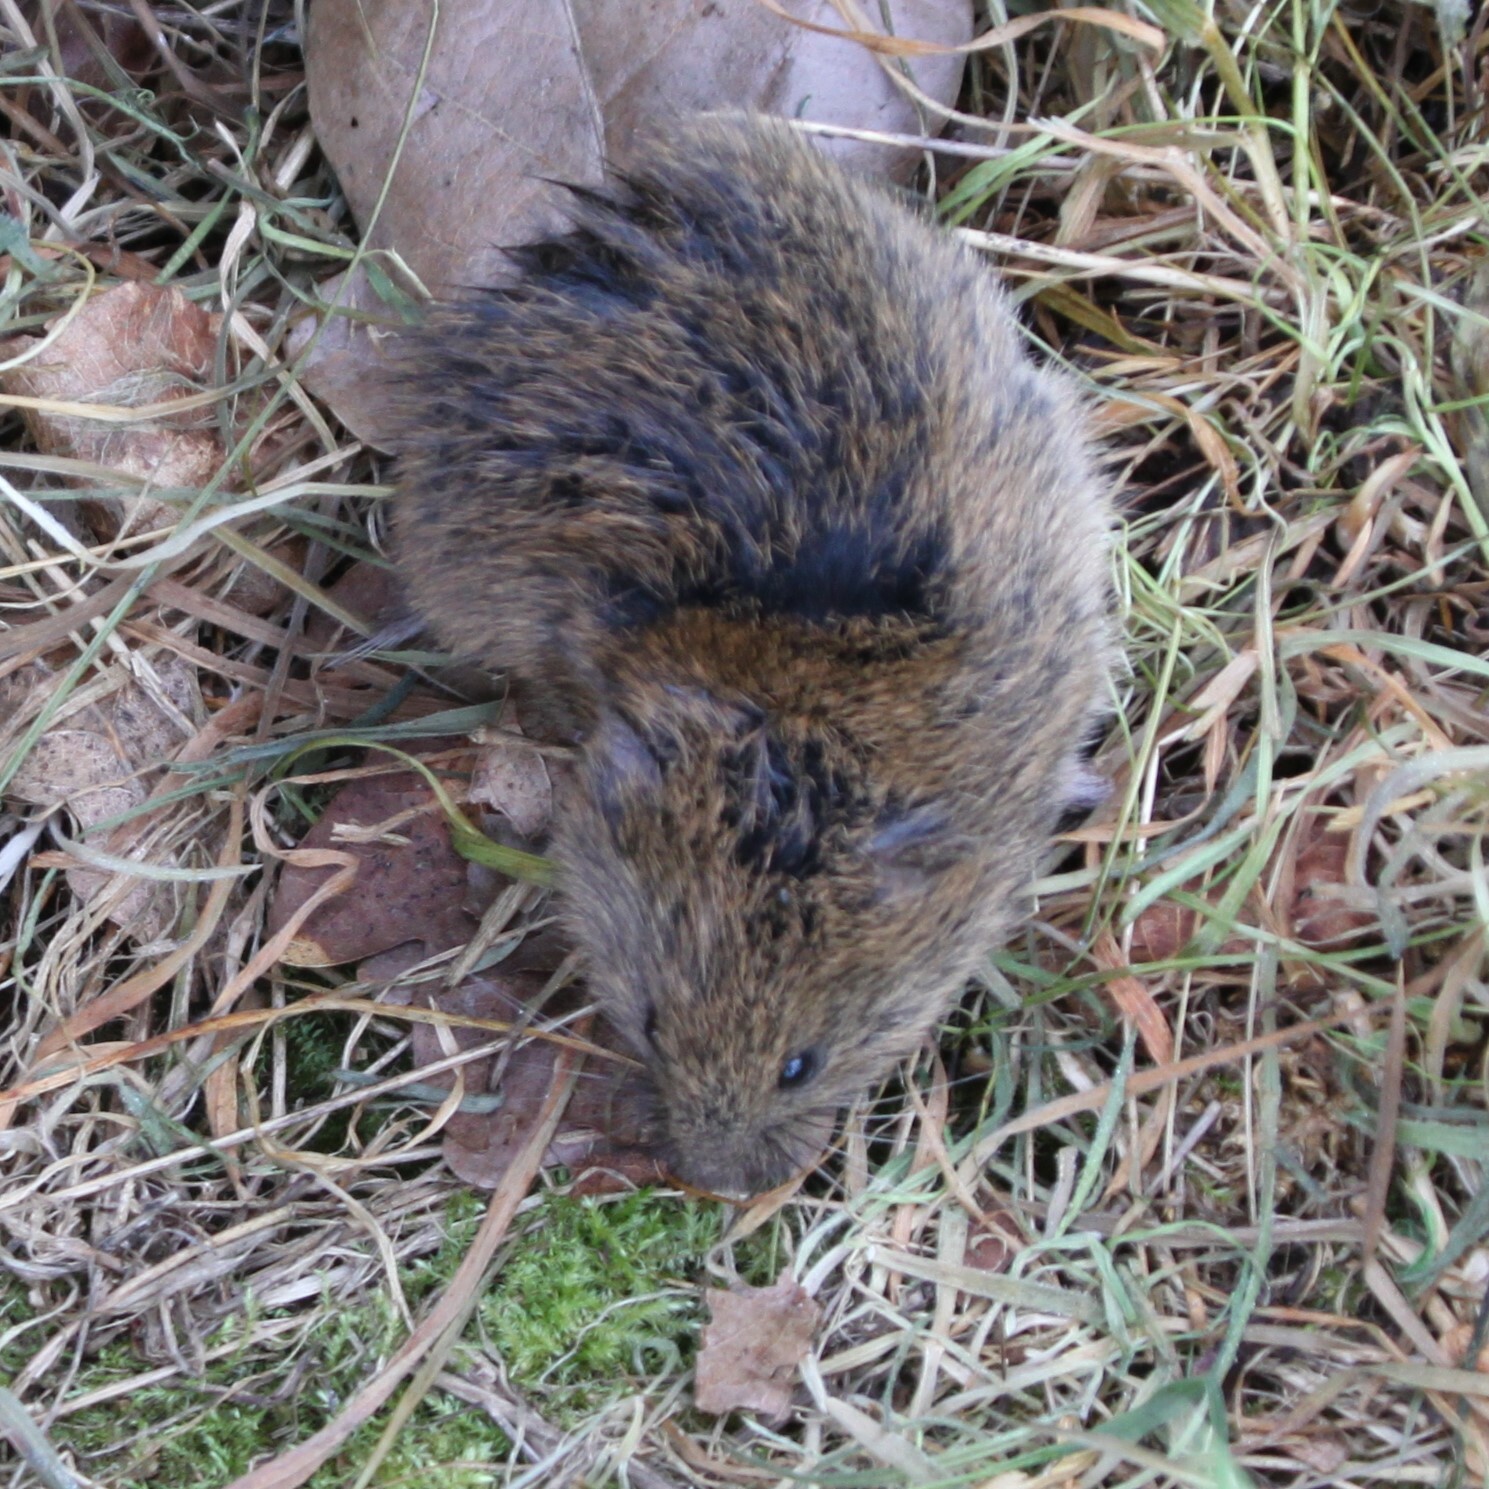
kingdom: Animalia
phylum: Chordata
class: Mammalia
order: Rodentia
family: Cricetidae
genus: Microtus
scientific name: Microtus agrestis
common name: Field vole
